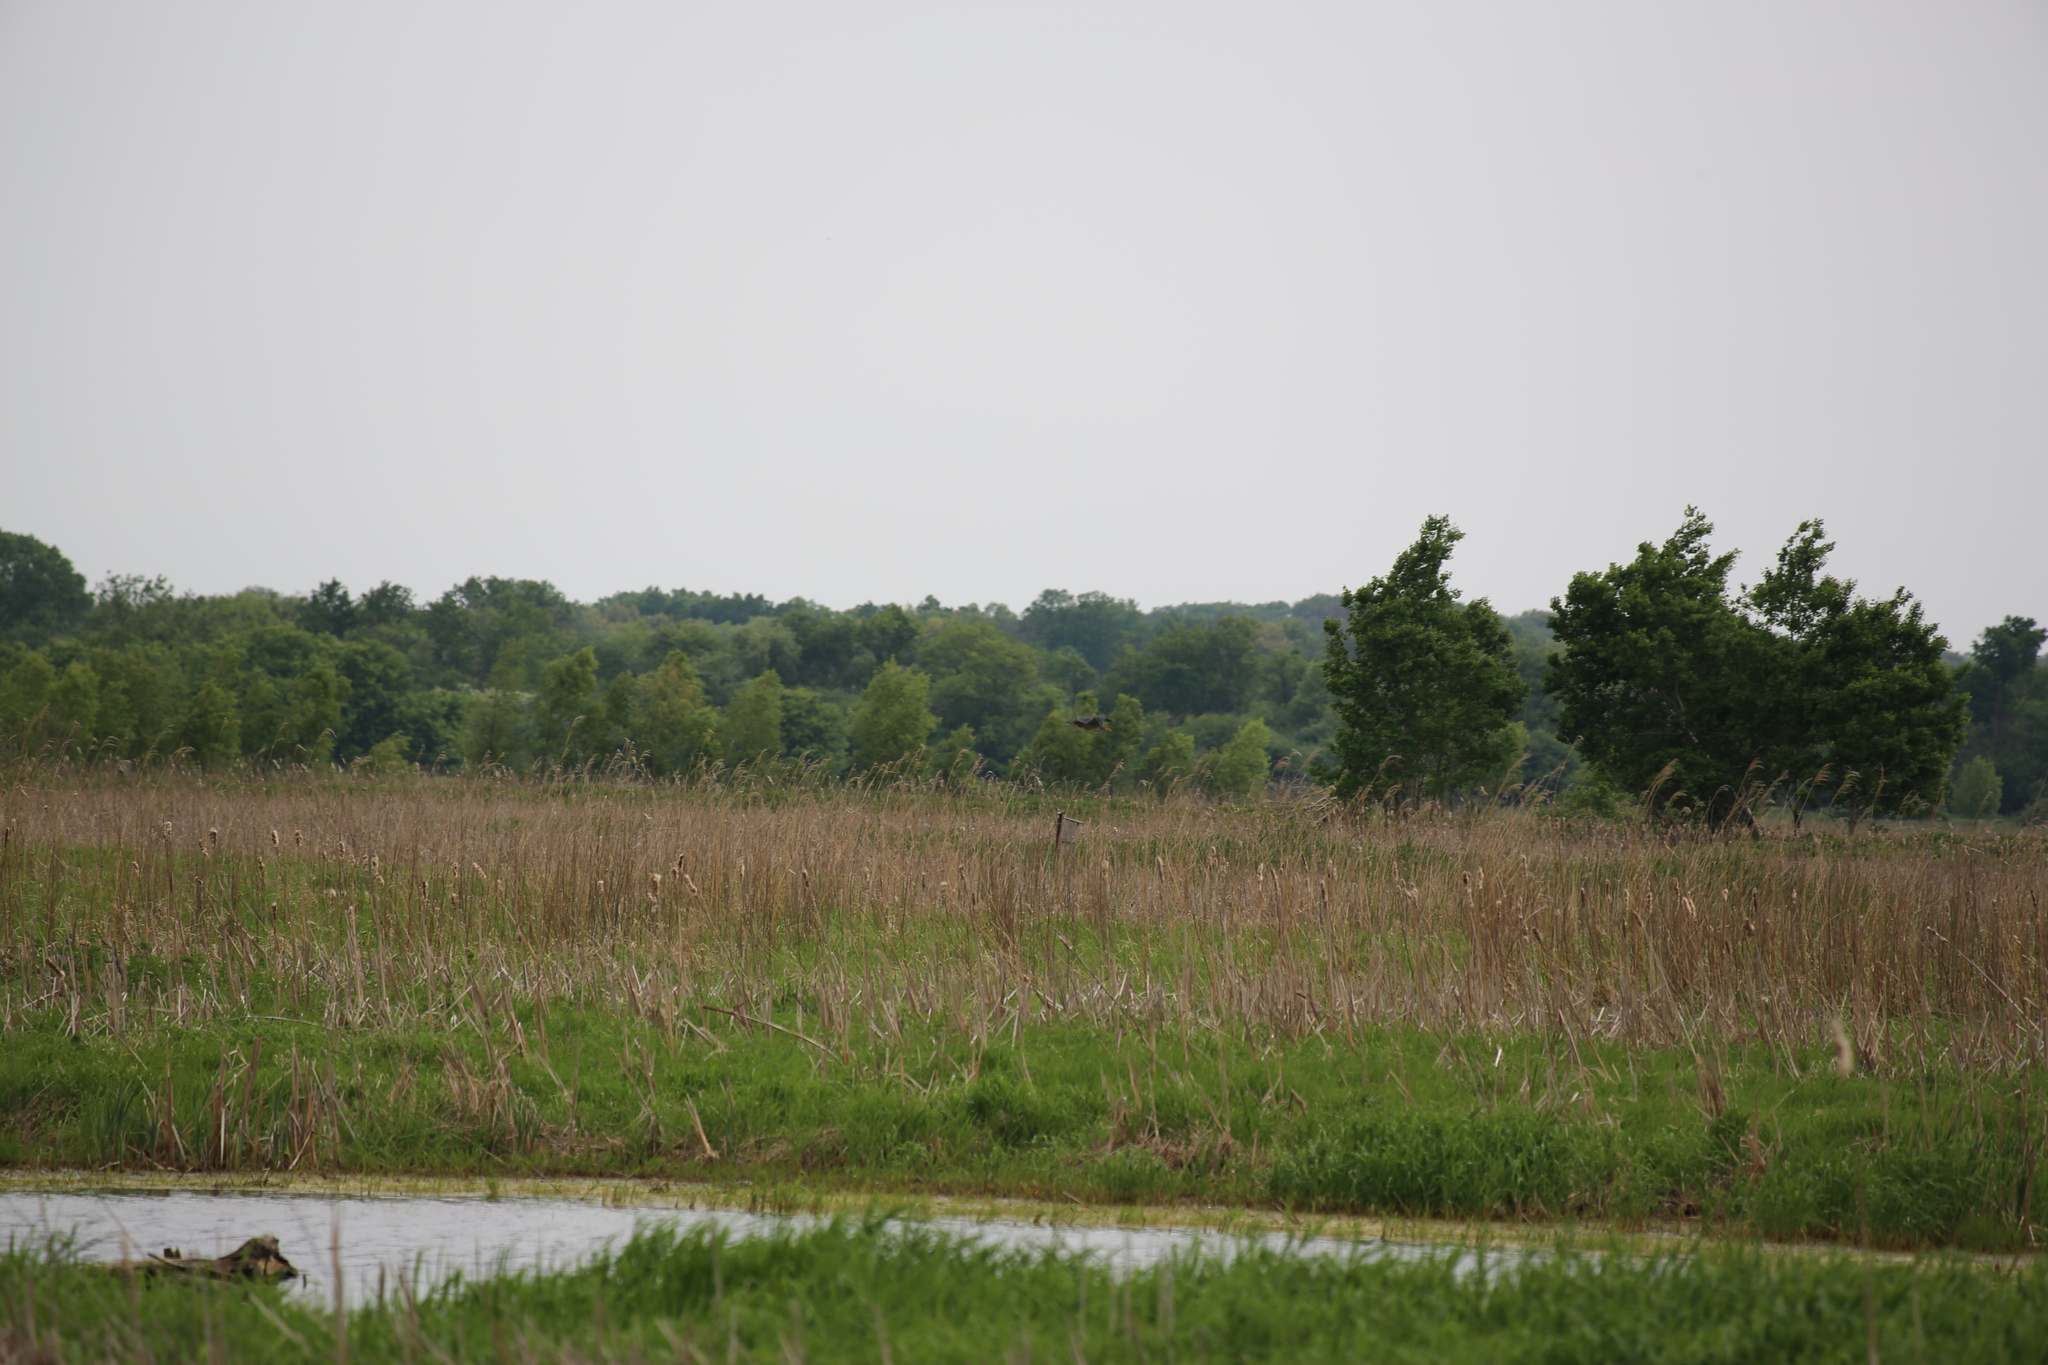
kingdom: Animalia
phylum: Chordata
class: Aves
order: Pelecaniformes
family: Ardeidae
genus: Butorides
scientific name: Butorides virescens
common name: Green heron
